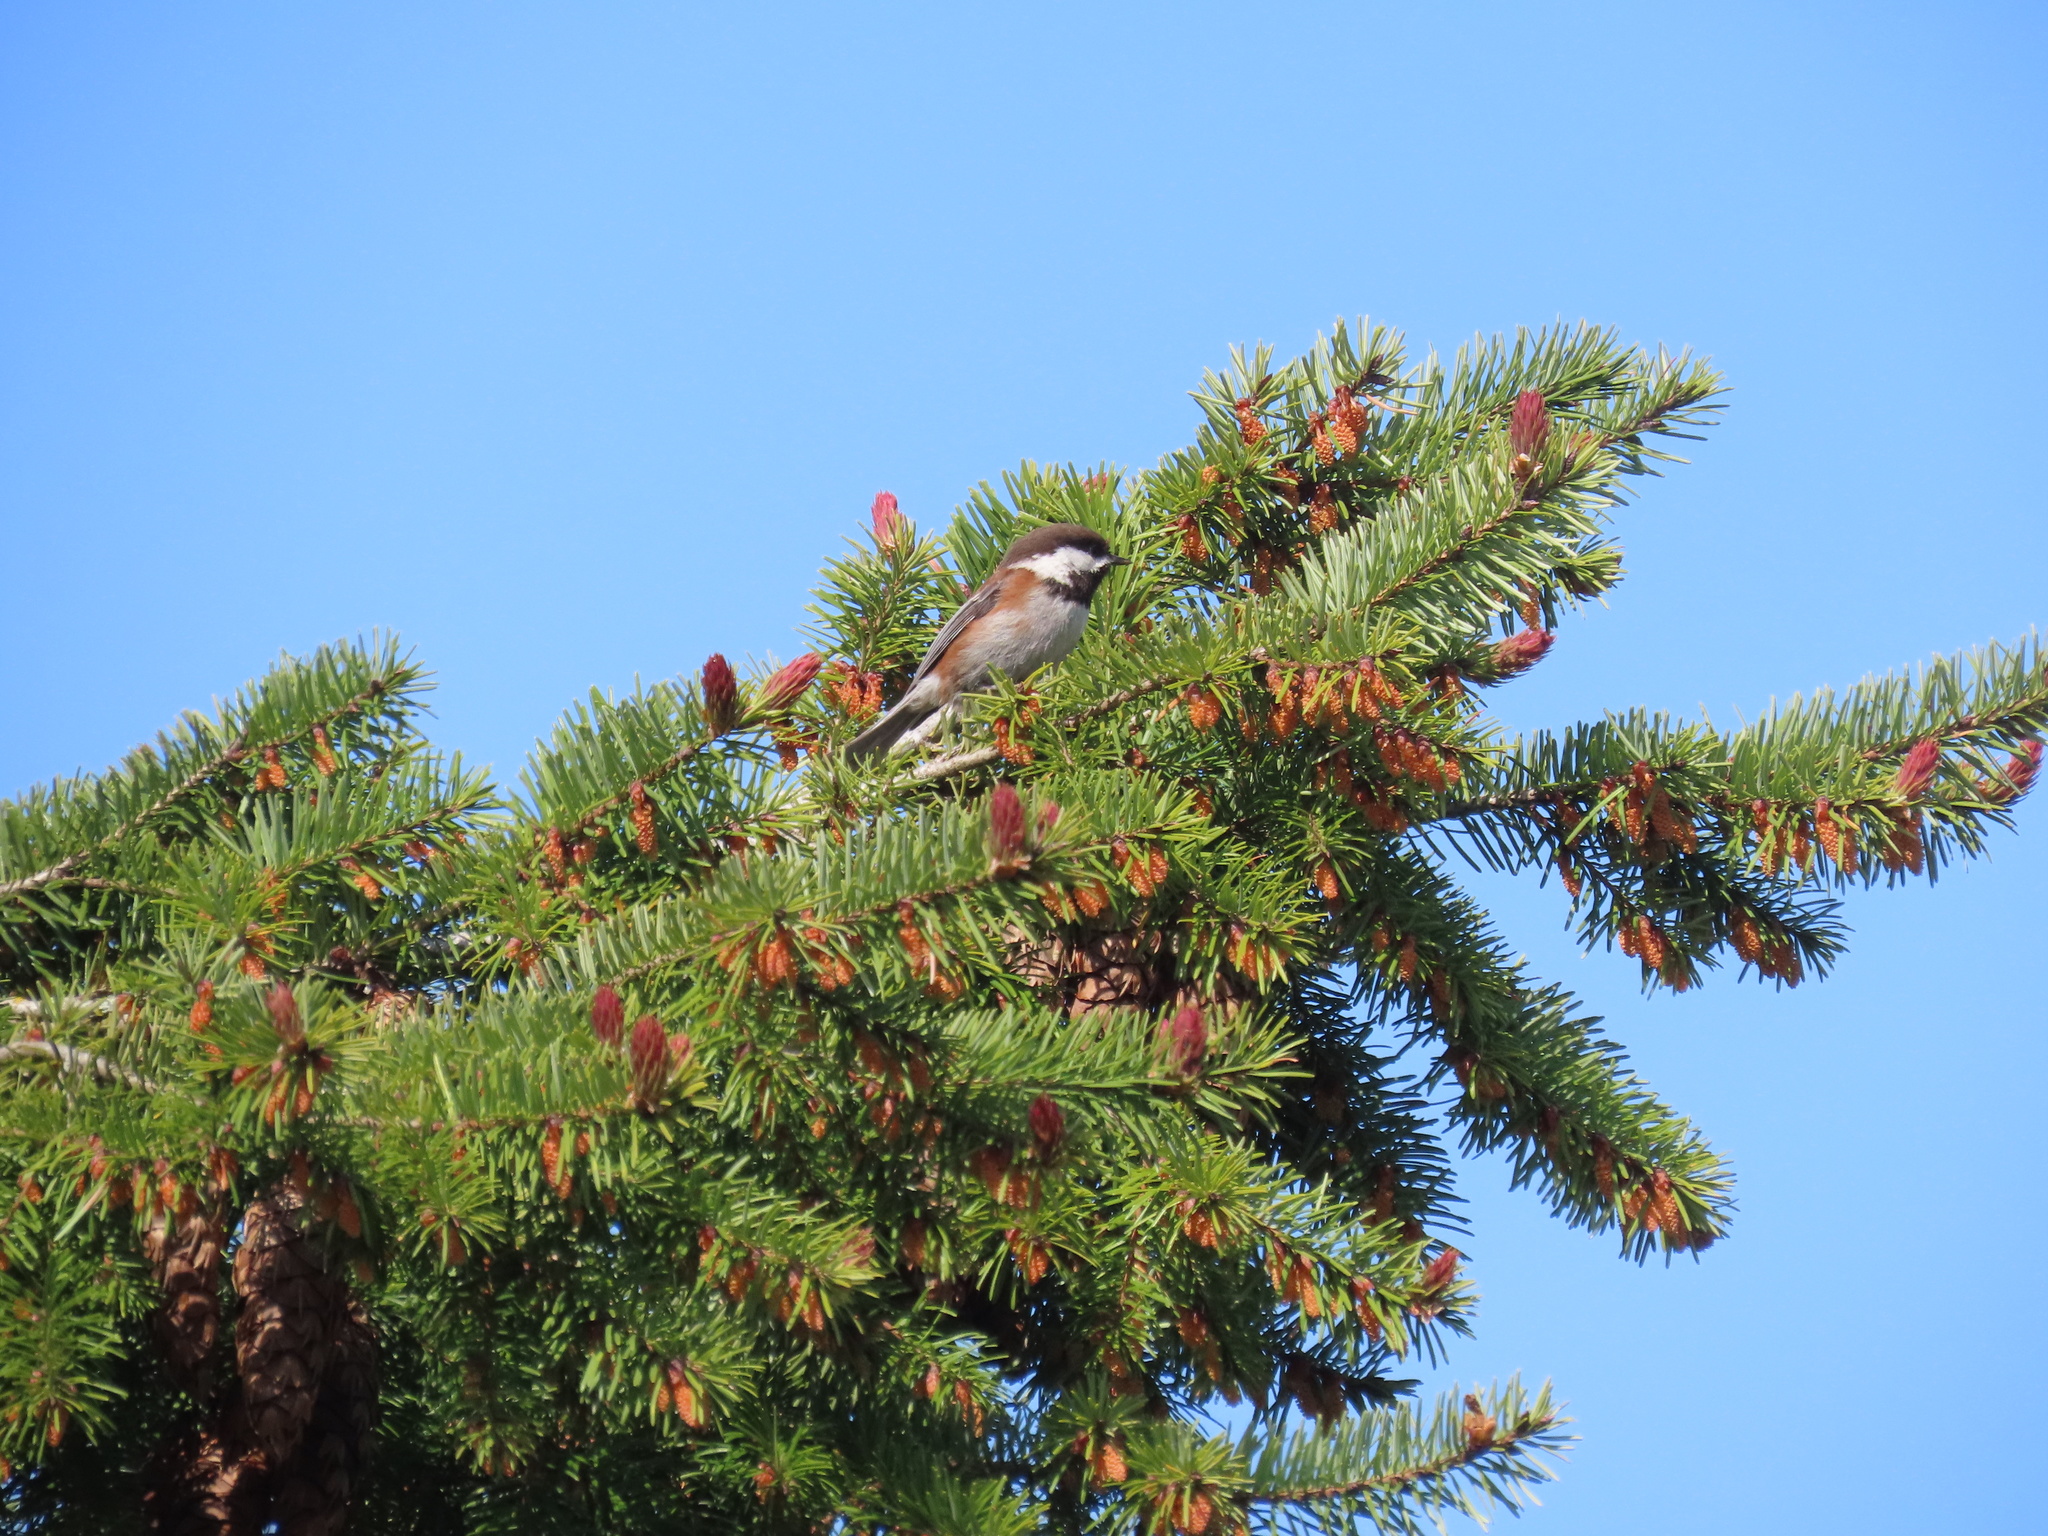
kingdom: Animalia
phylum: Chordata
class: Aves
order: Passeriformes
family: Paridae
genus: Poecile
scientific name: Poecile rufescens
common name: Chestnut-backed chickadee
